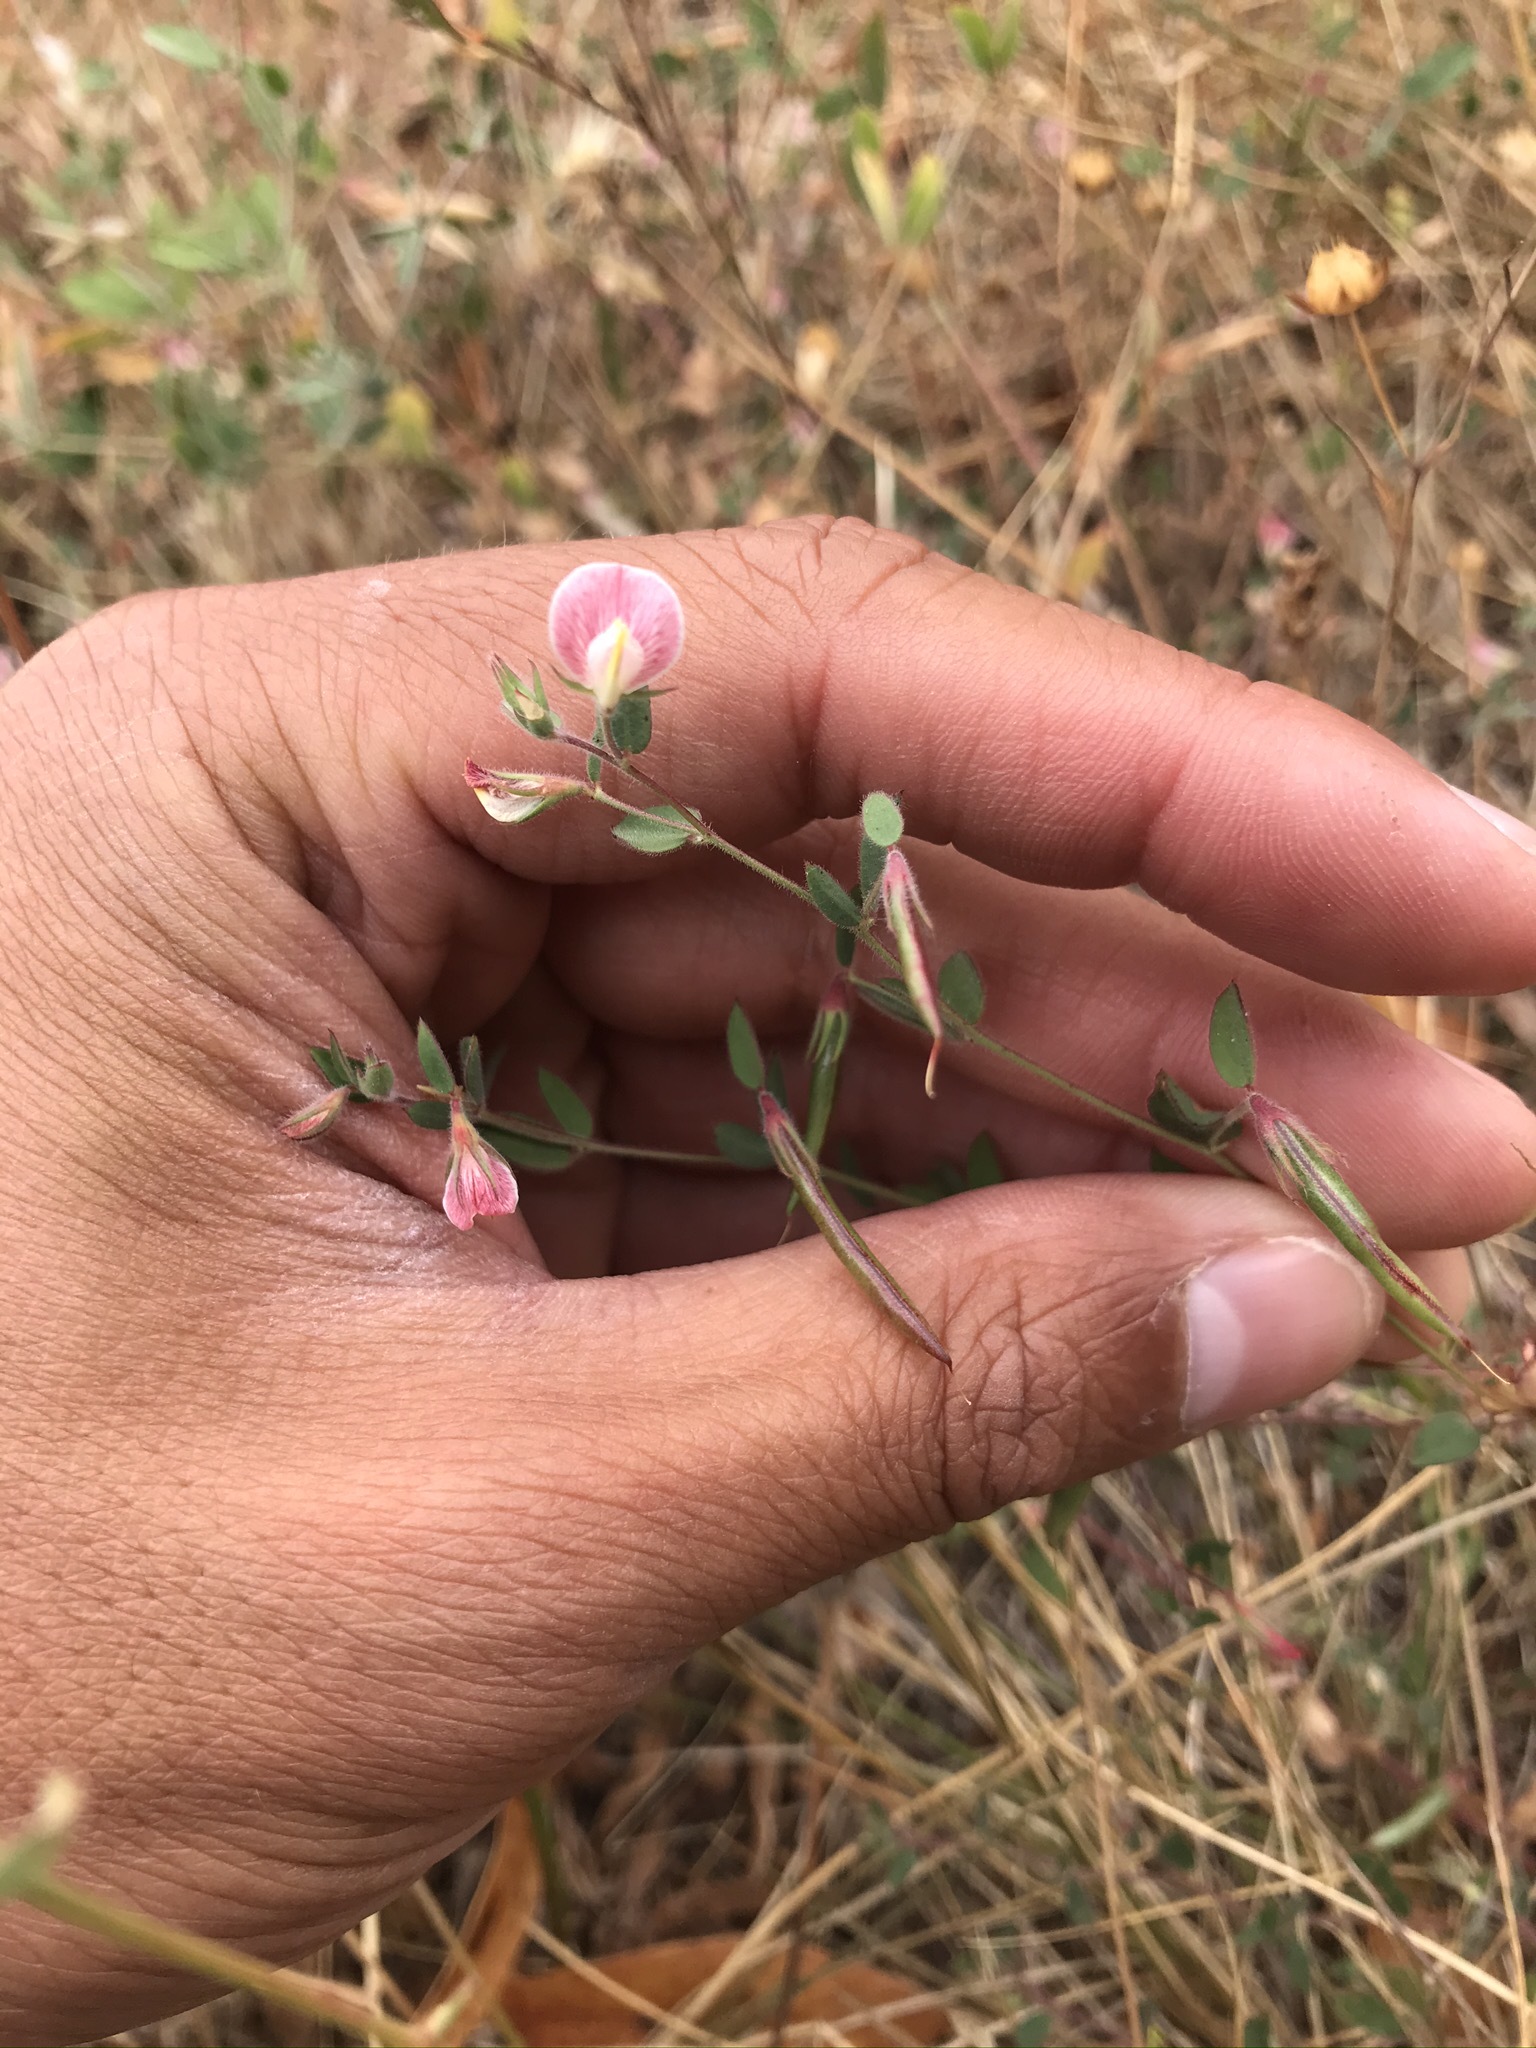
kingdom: Plantae
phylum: Tracheophyta
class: Magnoliopsida
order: Fabales
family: Fabaceae
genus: Acmispon
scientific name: Acmispon americanus
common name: American bird's-foot trefoil
